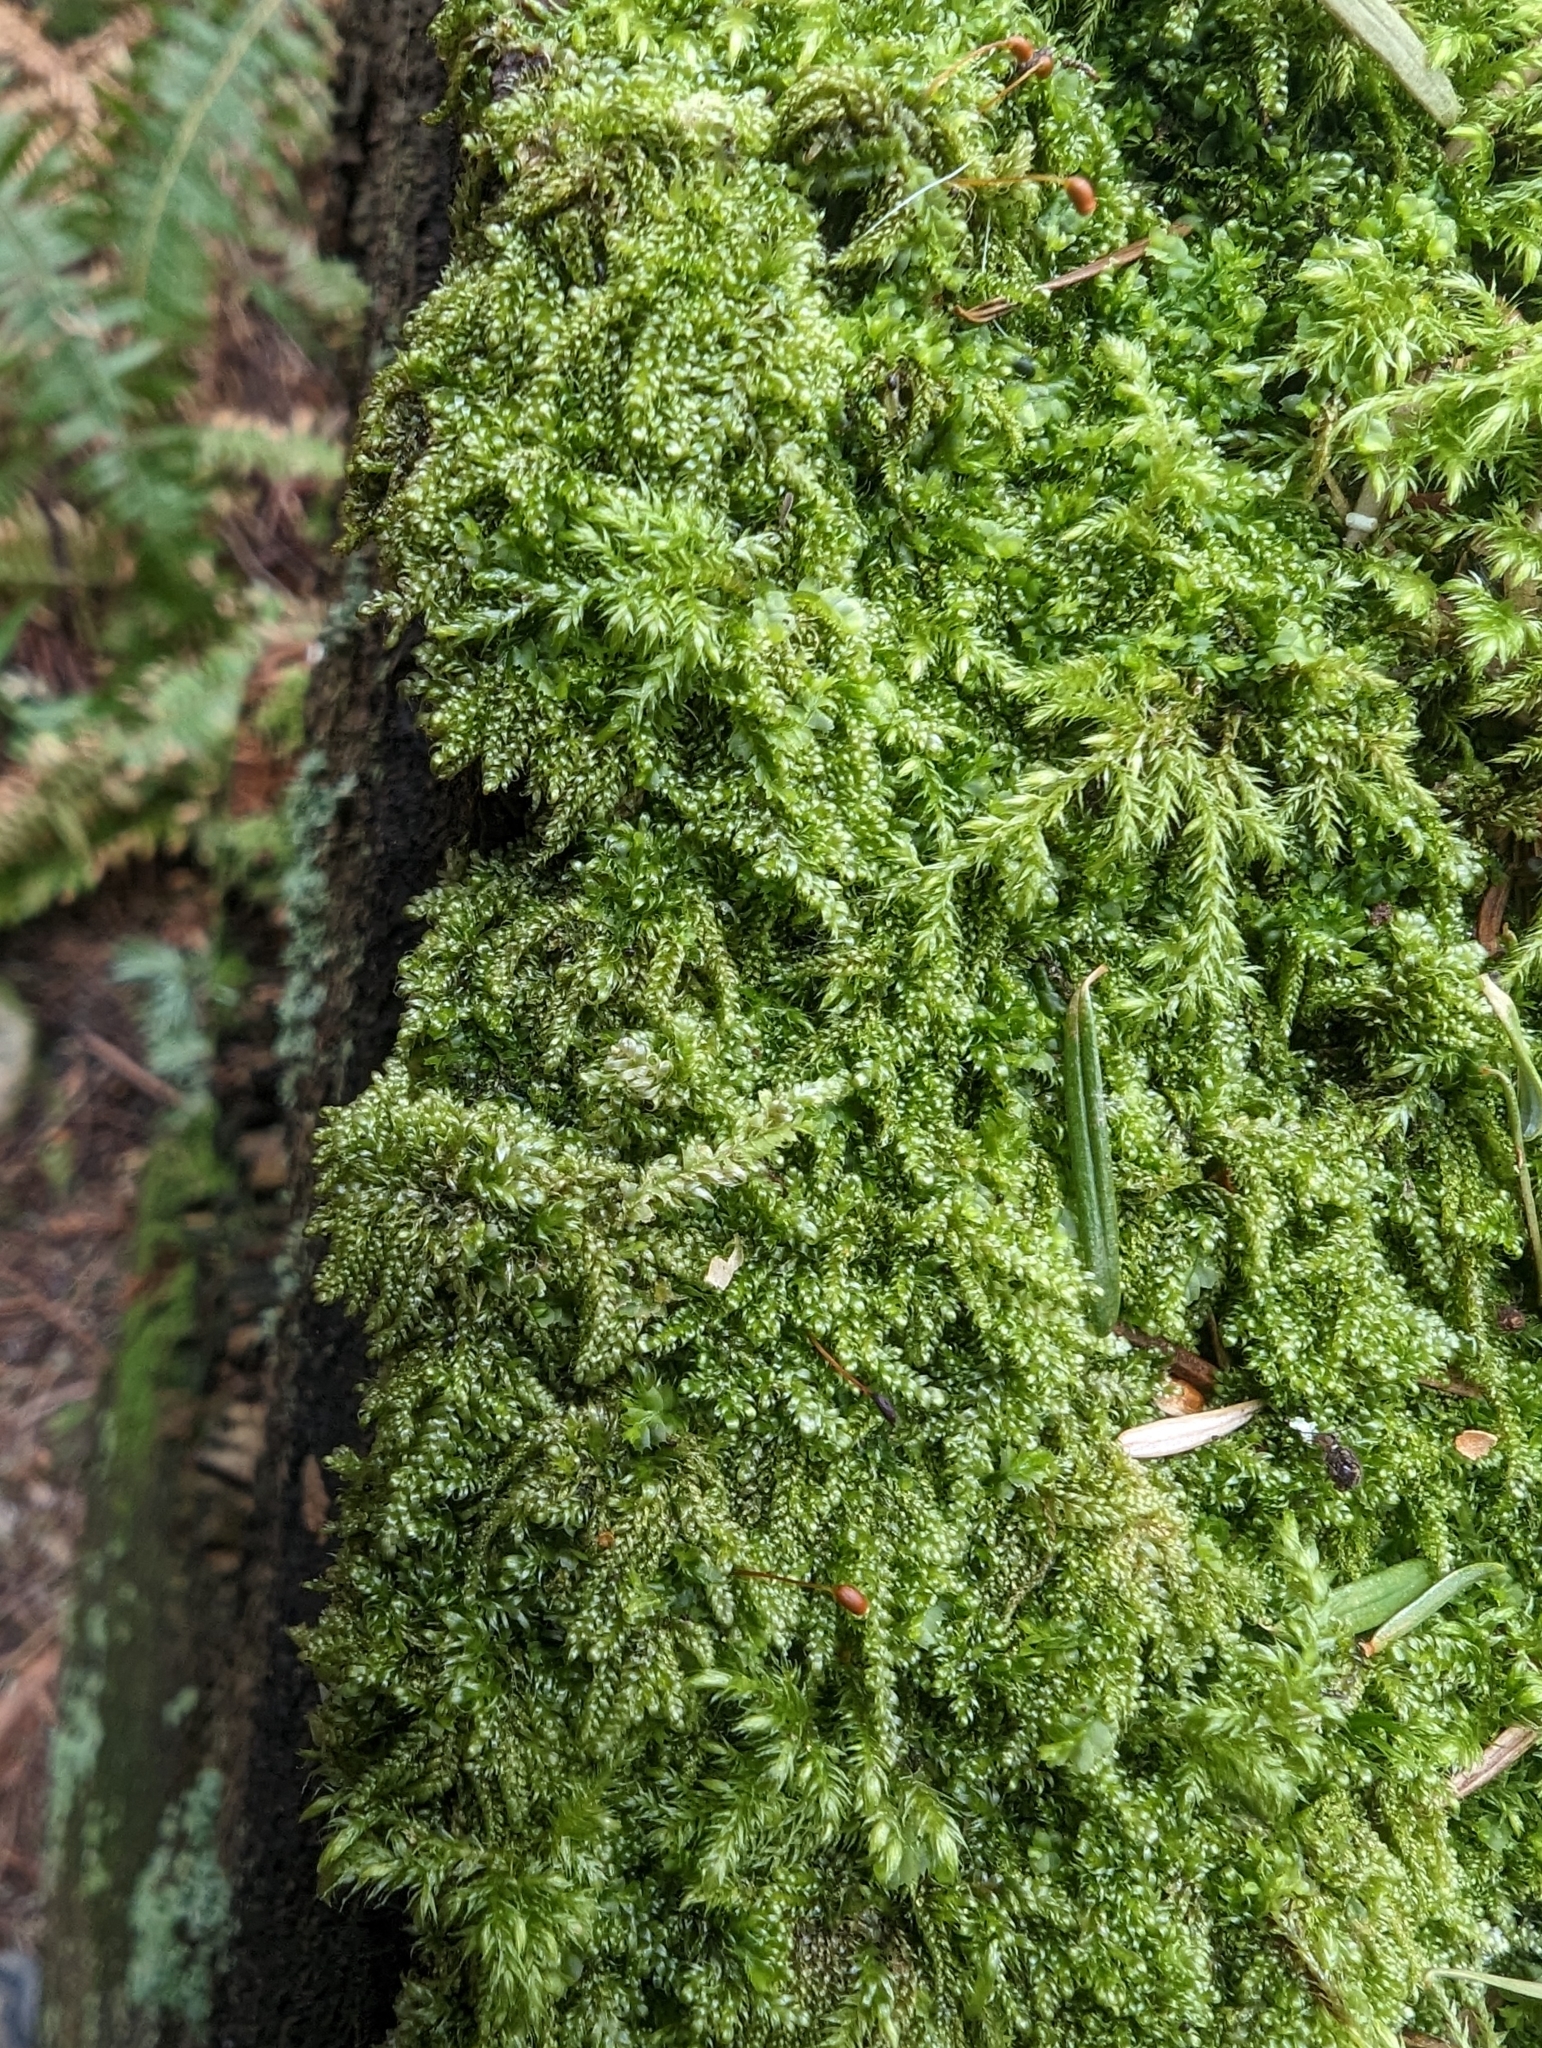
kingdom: Plantae
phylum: Bryophyta
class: Bryopsida
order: Hypnales
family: Pylaisiadelphaceae
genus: Trochophyllohypnum
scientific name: Trochophyllohypnum circinale
